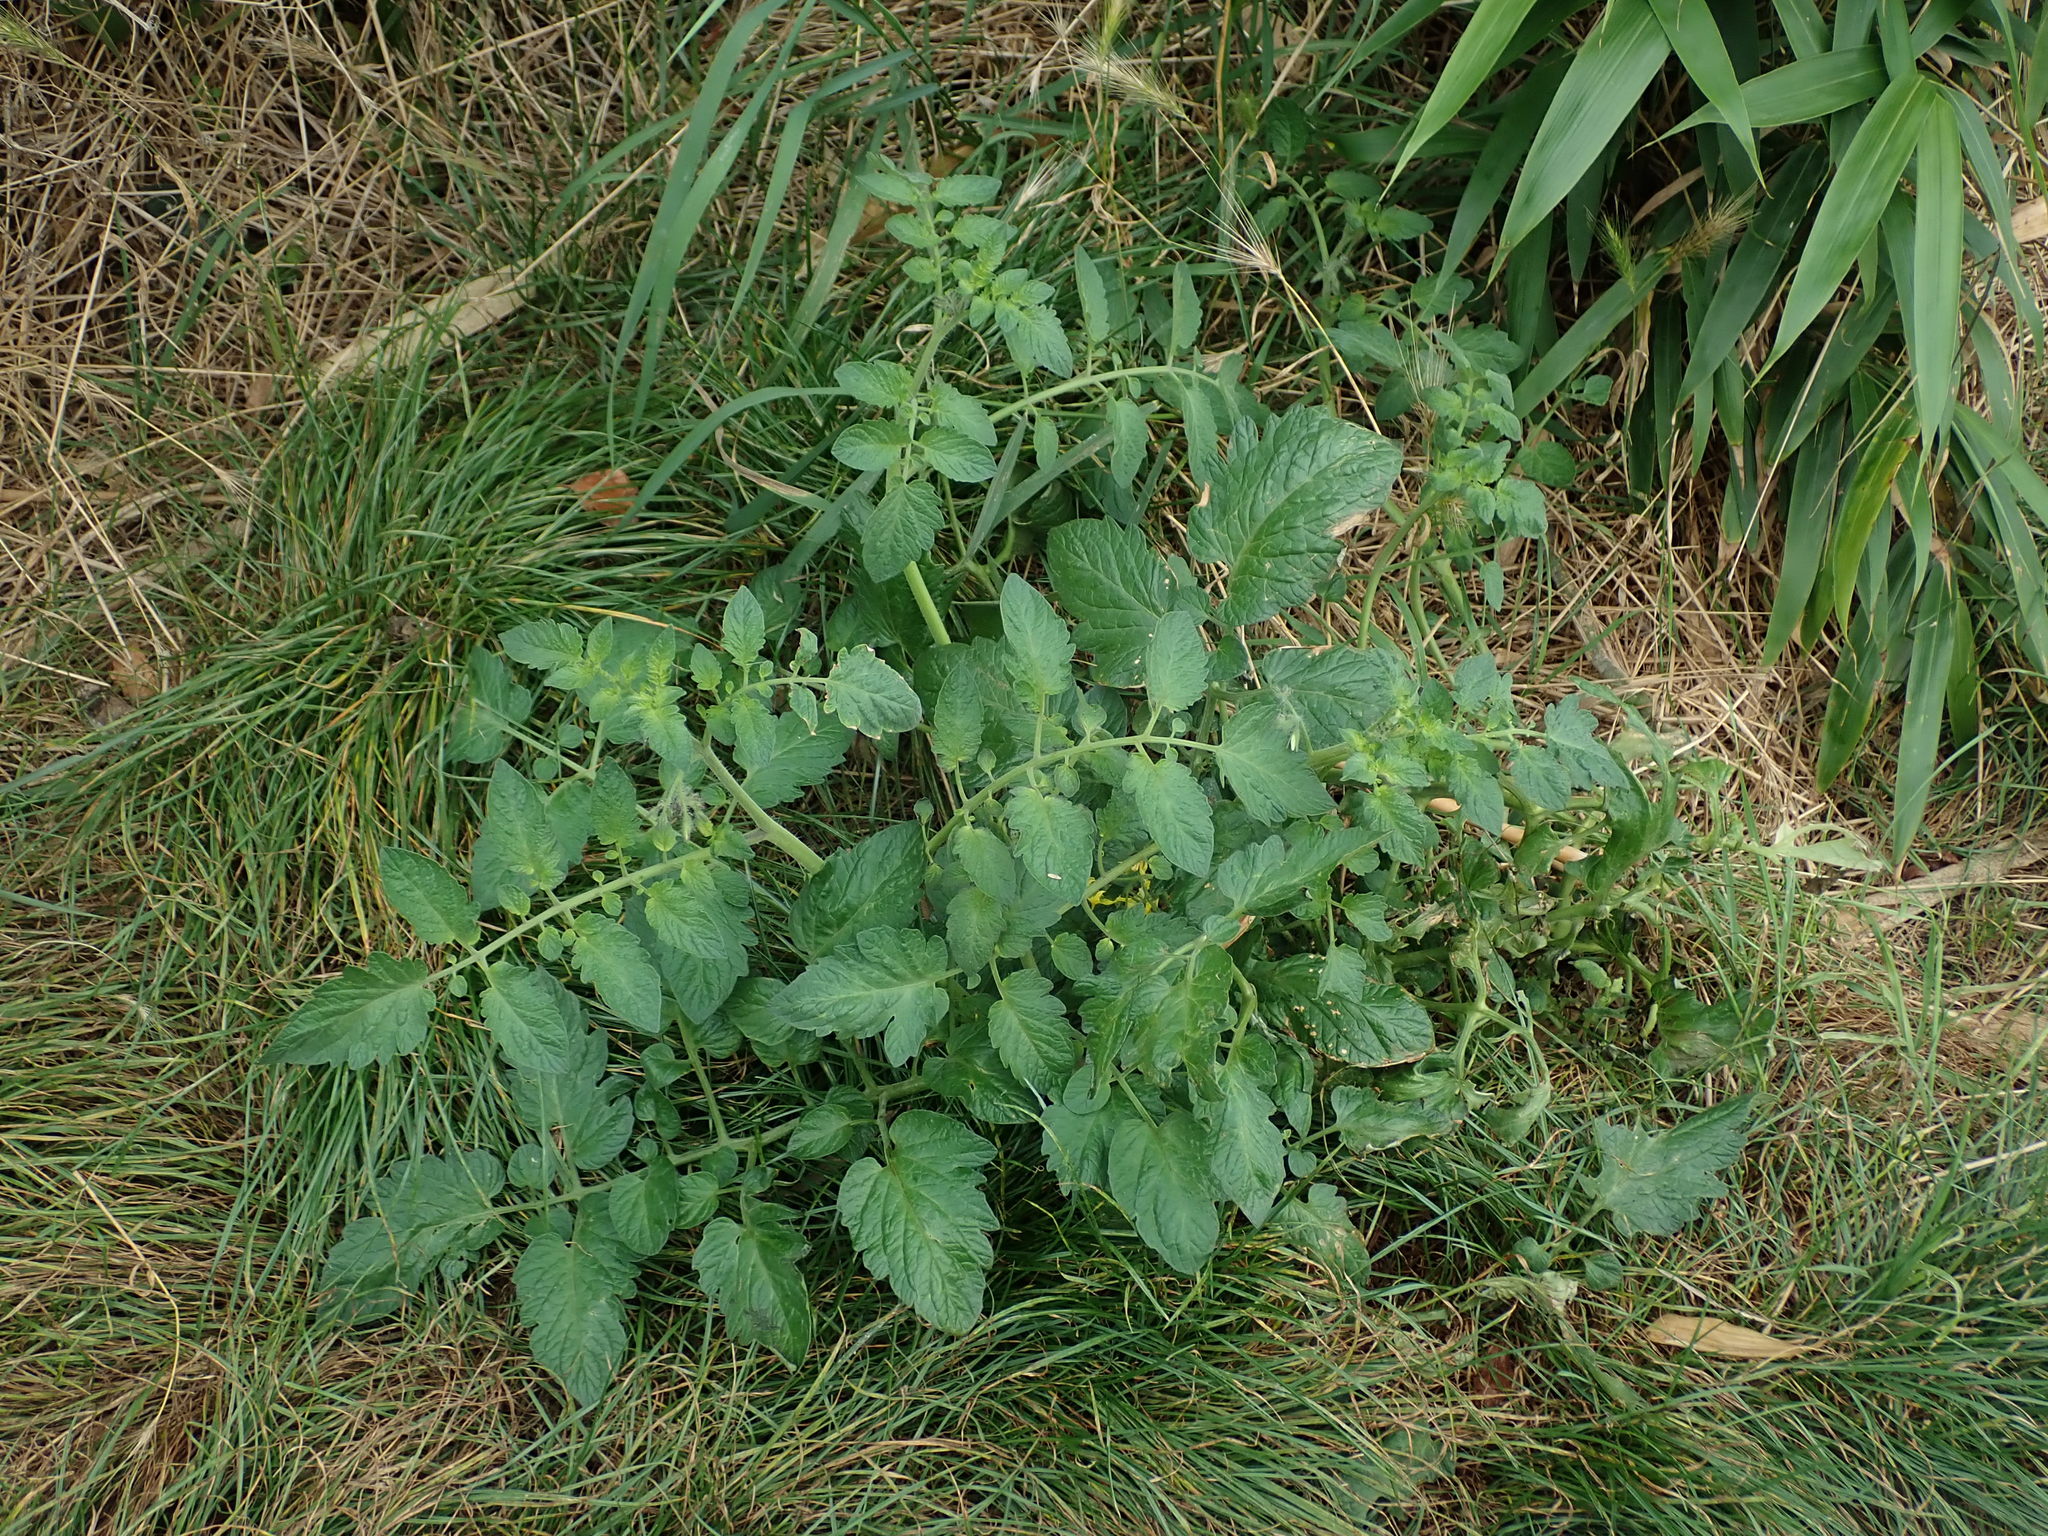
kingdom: Plantae
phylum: Tracheophyta
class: Magnoliopsida
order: Solanales
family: Solanaceae
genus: Solanum
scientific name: Solanum lycopersicum
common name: Garden tomato
